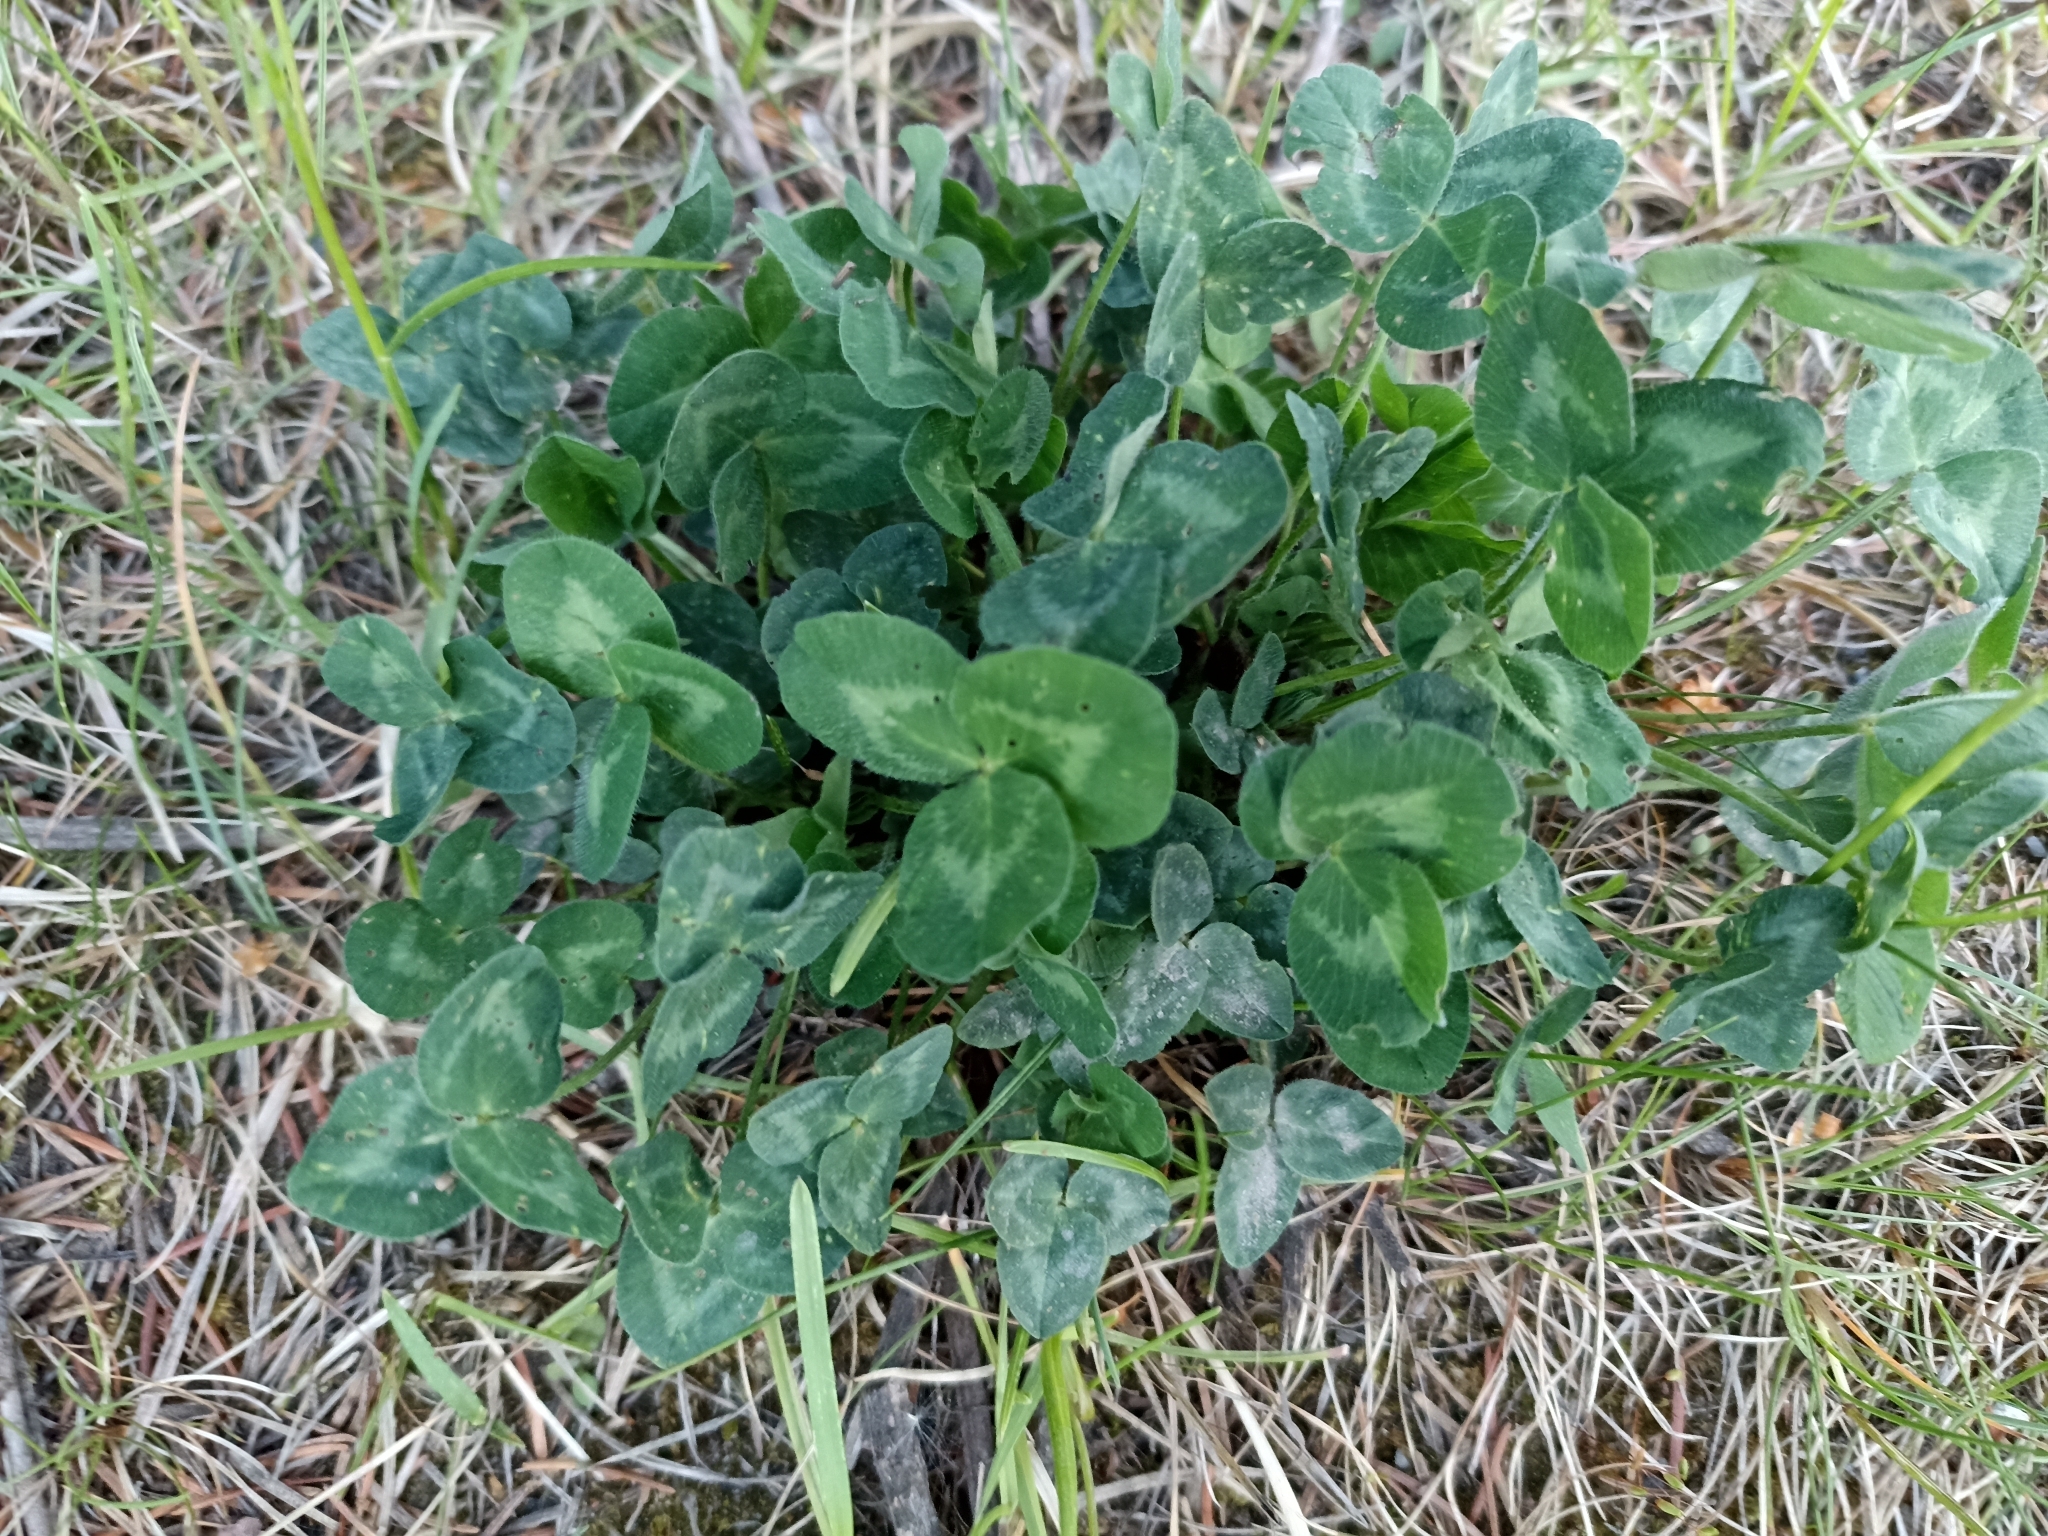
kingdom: Plantae
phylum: Tracheophyta
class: Magnoliopsida
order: Fabales
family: Fabaceae
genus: Trifolium
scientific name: Trifolium pratense
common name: Red clover
